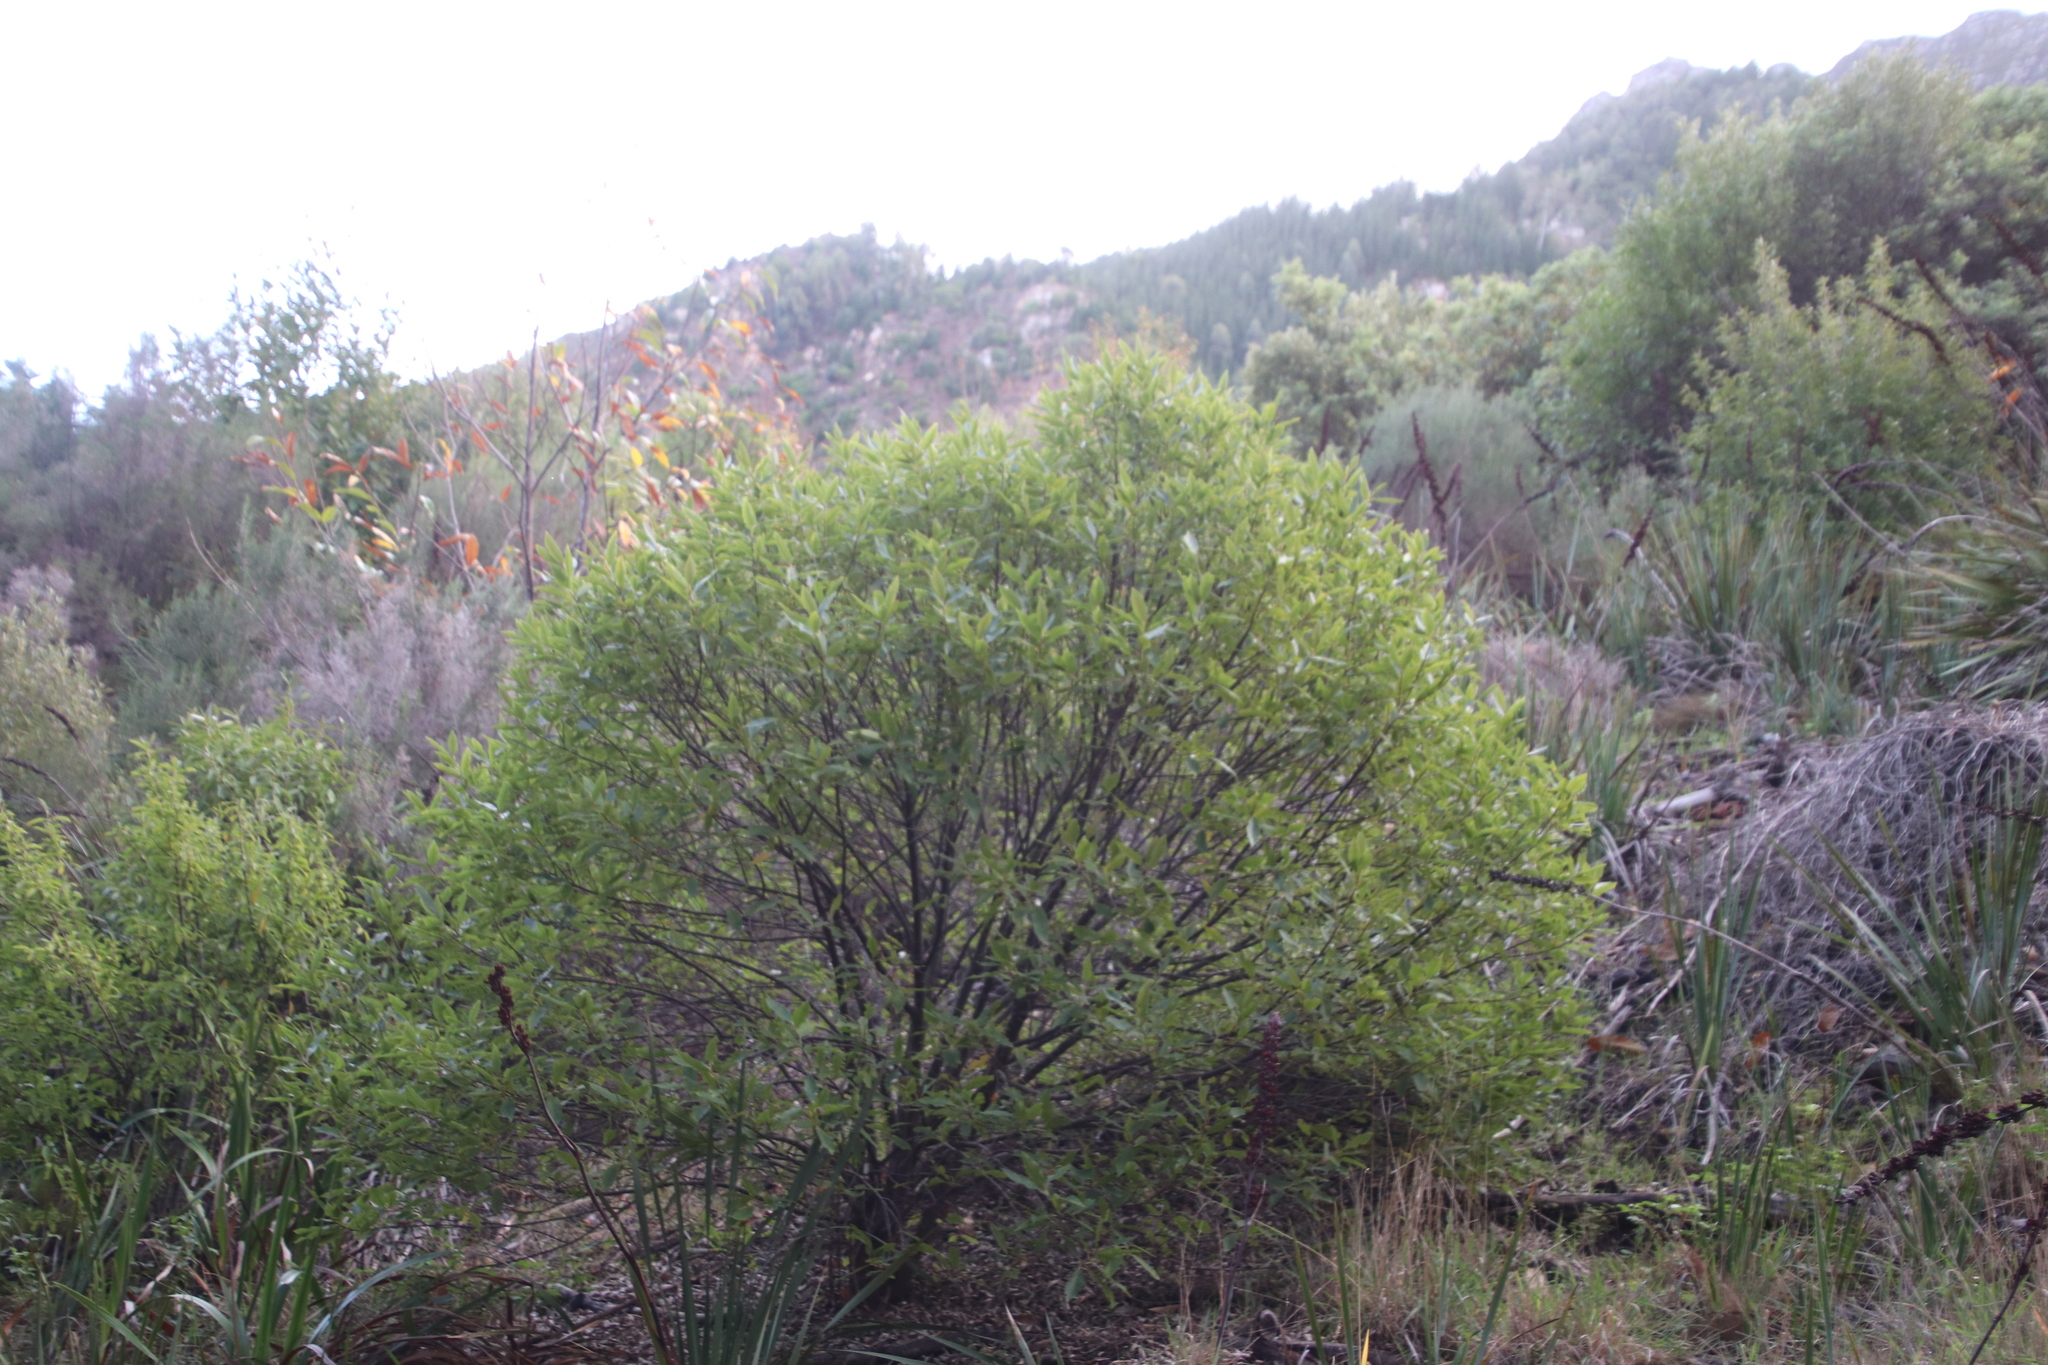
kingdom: Plantae
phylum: Tracheophyta
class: Magnoliopsida
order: Malpighiales
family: Achariaceae
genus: Kiggelaria
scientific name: Kiggelaria africana
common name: Wild peach
